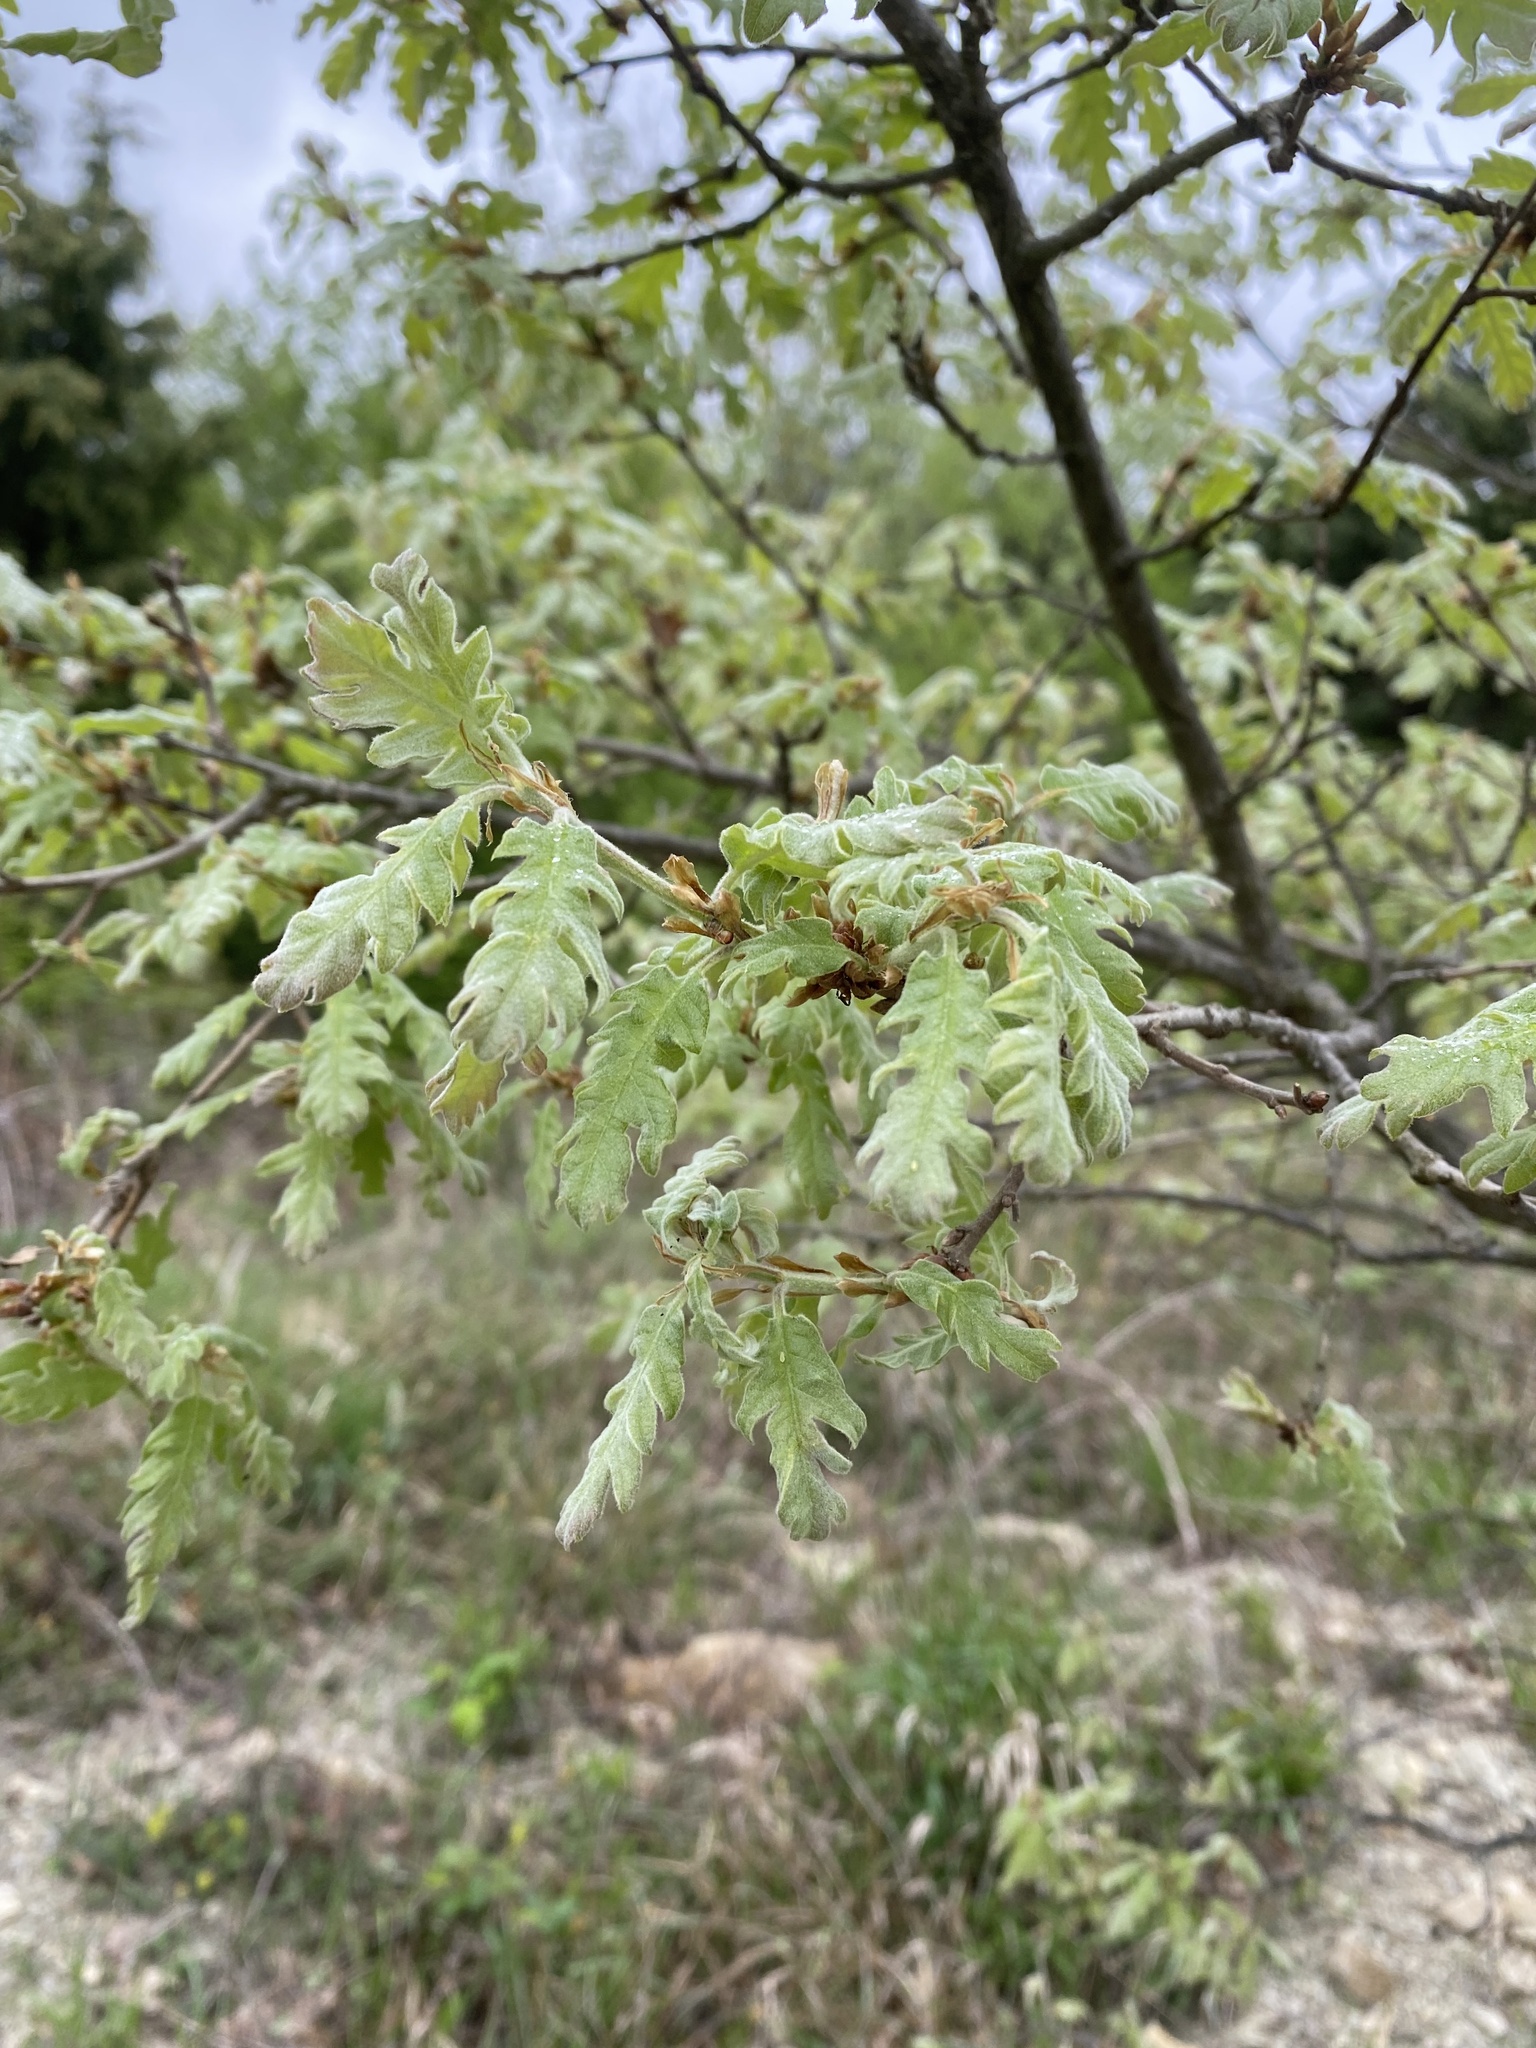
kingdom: Plantae
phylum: Tracheophyta
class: Magnoliopsida
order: Fagales
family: Fagaceae
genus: Quercus
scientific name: Quercus pubescens
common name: Downy oak
